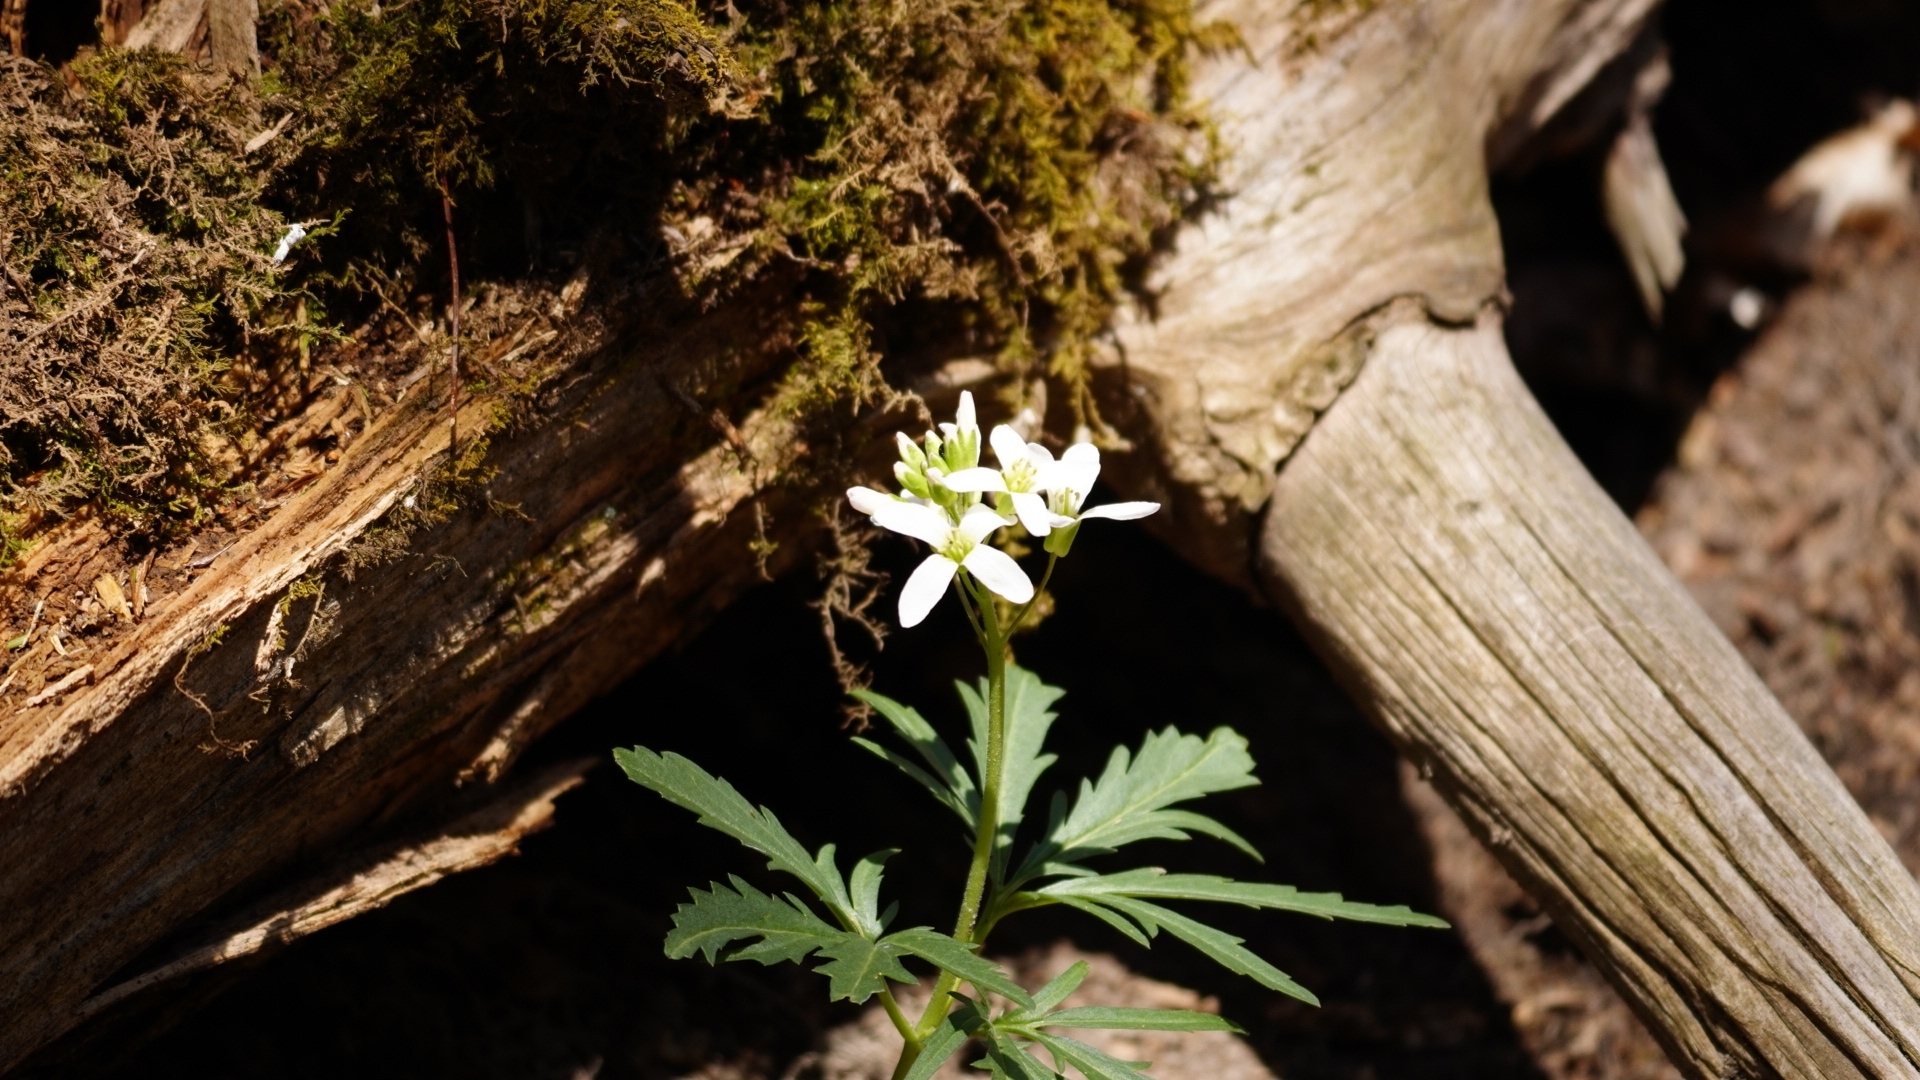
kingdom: Plantae
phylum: Tracheophyta
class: Magnoliopsida
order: Brassicales
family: Brassicaceae
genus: Cardamine
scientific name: Cardamine concatenata
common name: Cut-leaf toothcup
